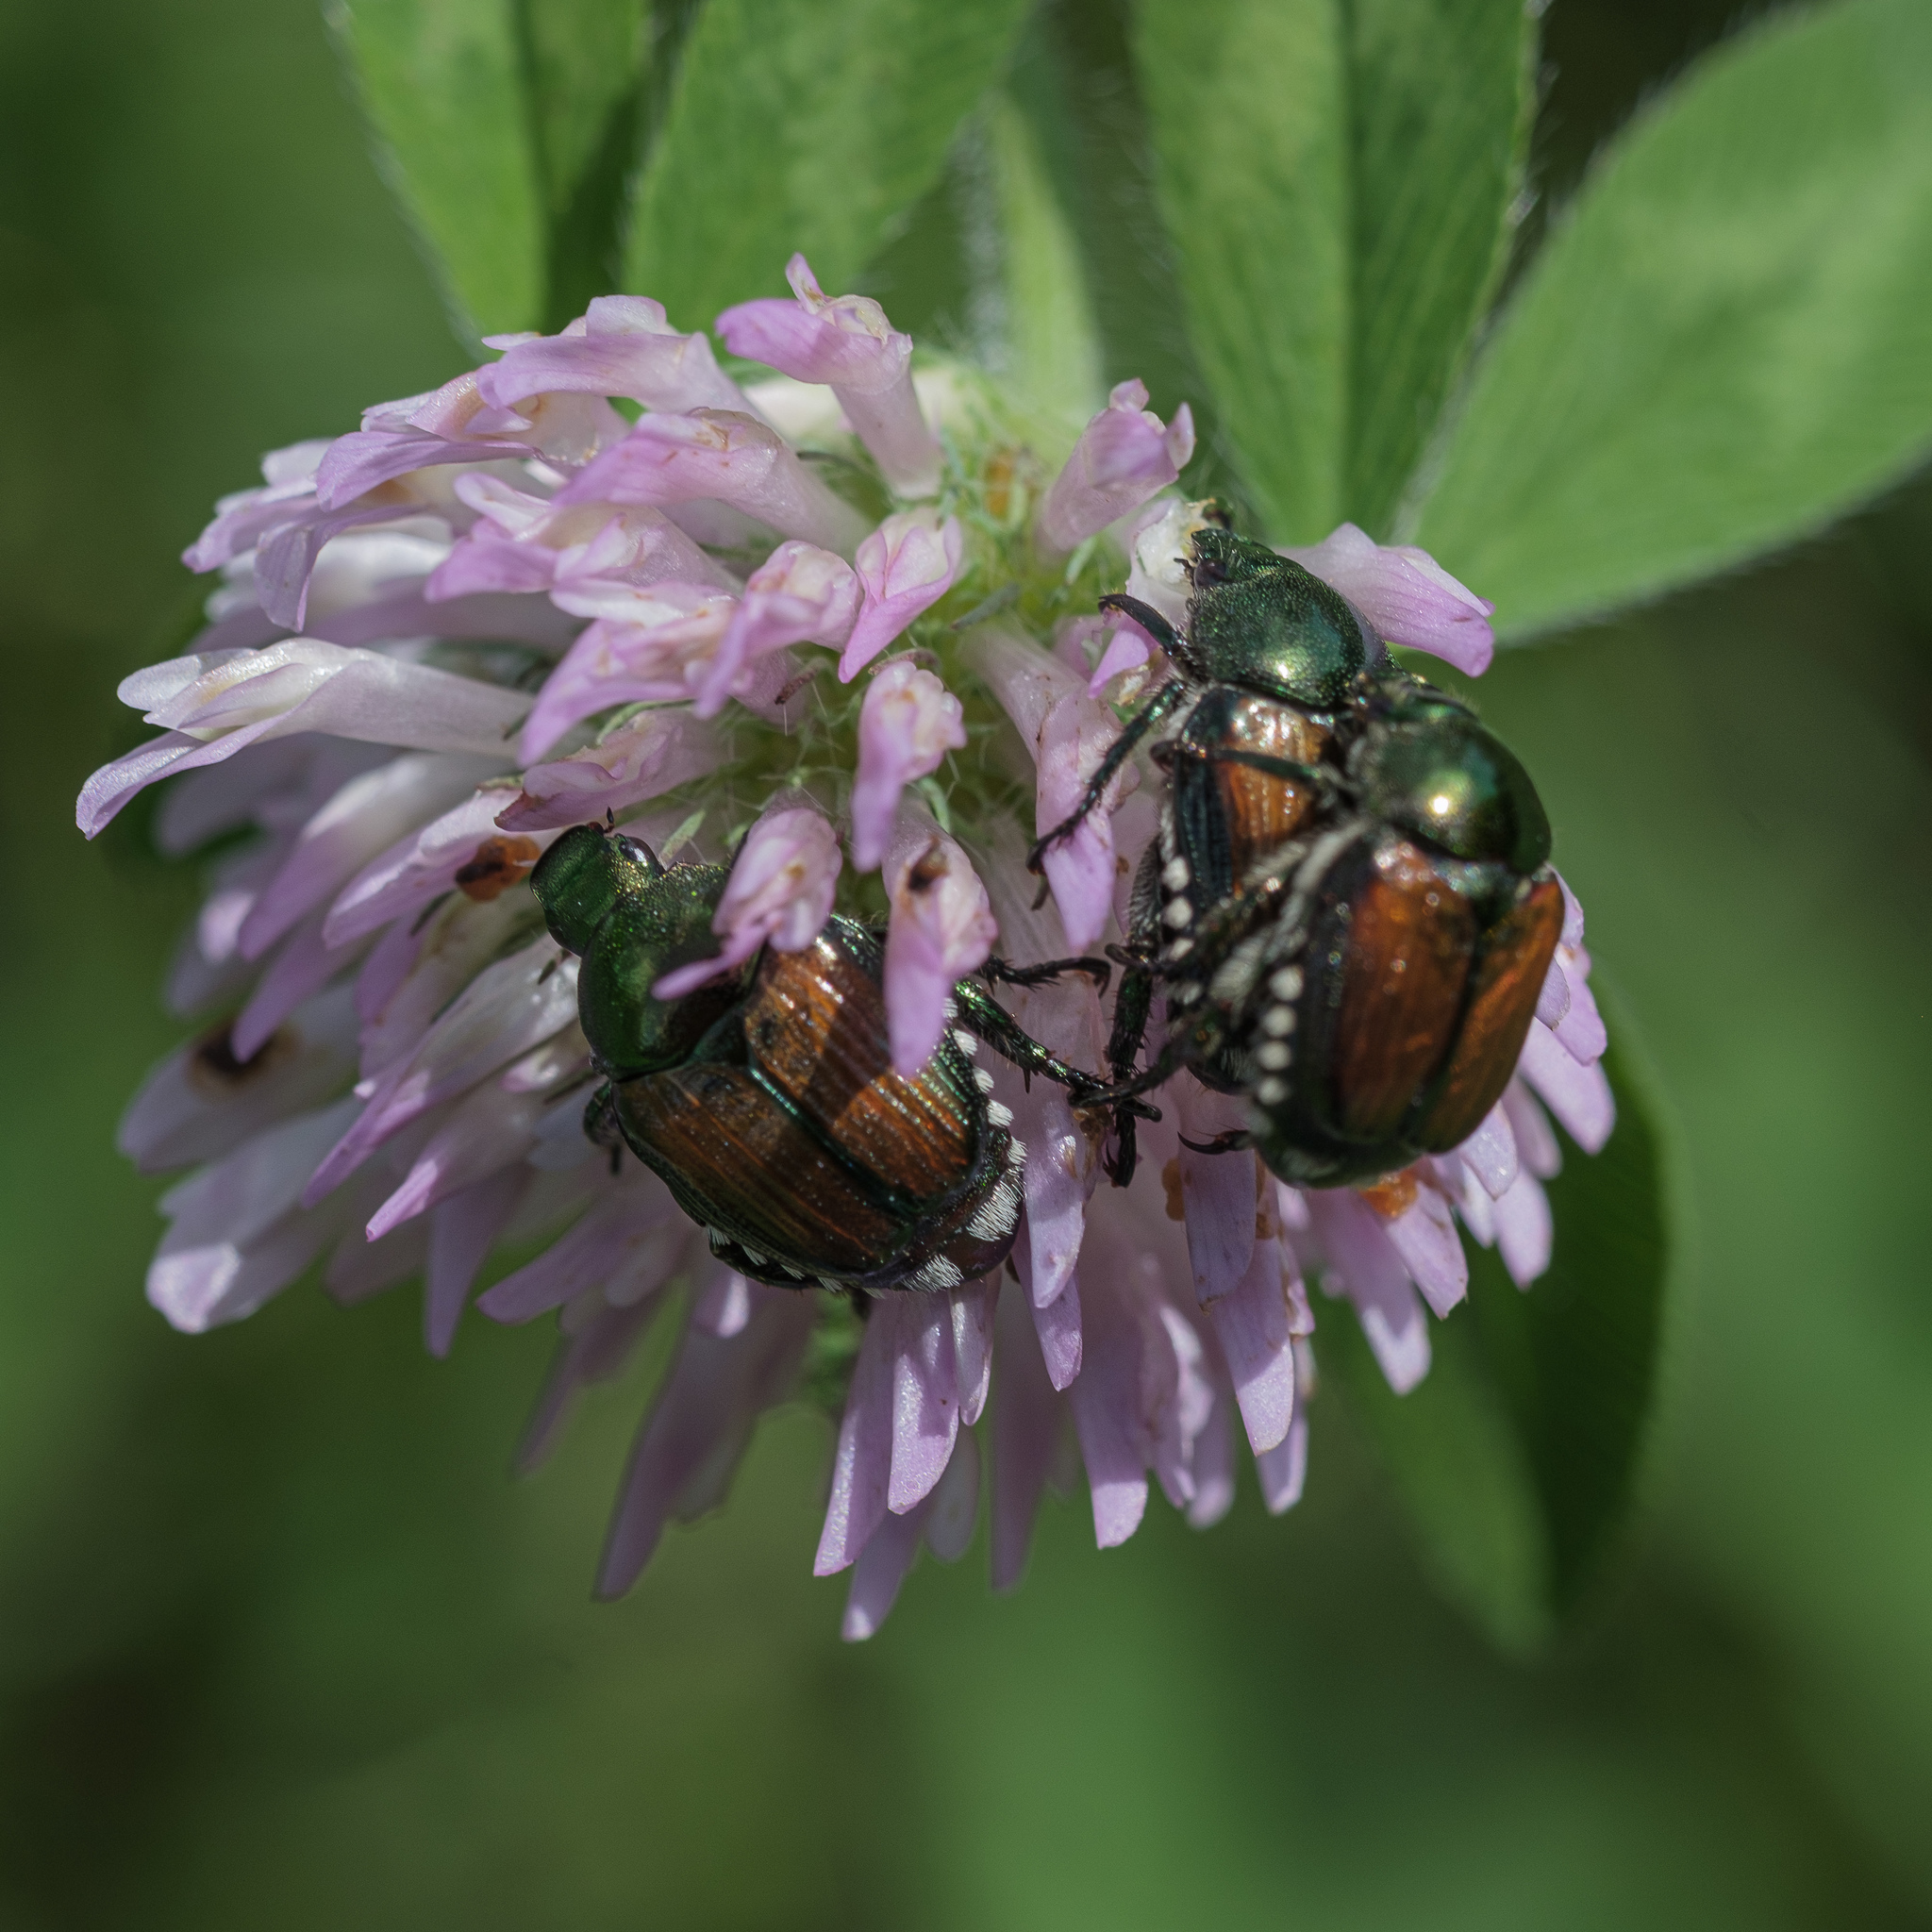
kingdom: Animalia
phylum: Arthropoda
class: Insecta
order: Coleoptera
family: Scarabaeidae
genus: Popillia
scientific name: Popillia japonica
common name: Japanese beetle
